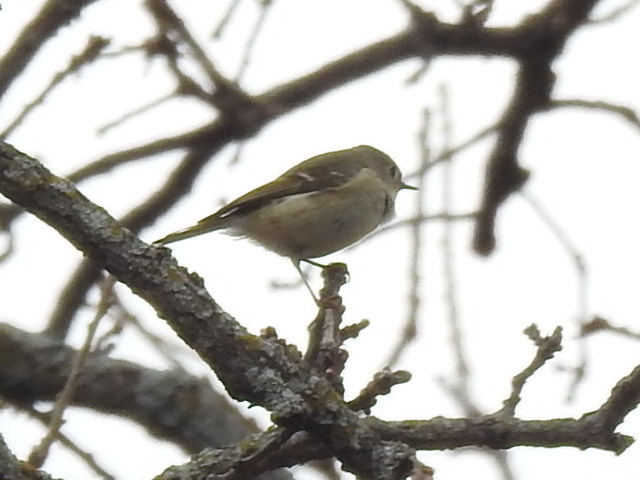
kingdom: Animalia
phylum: Chordata
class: Aves
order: Passeriformes
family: Regulidae
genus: Regulus
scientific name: Regulus calendula
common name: Ruby-crowned kinglet
